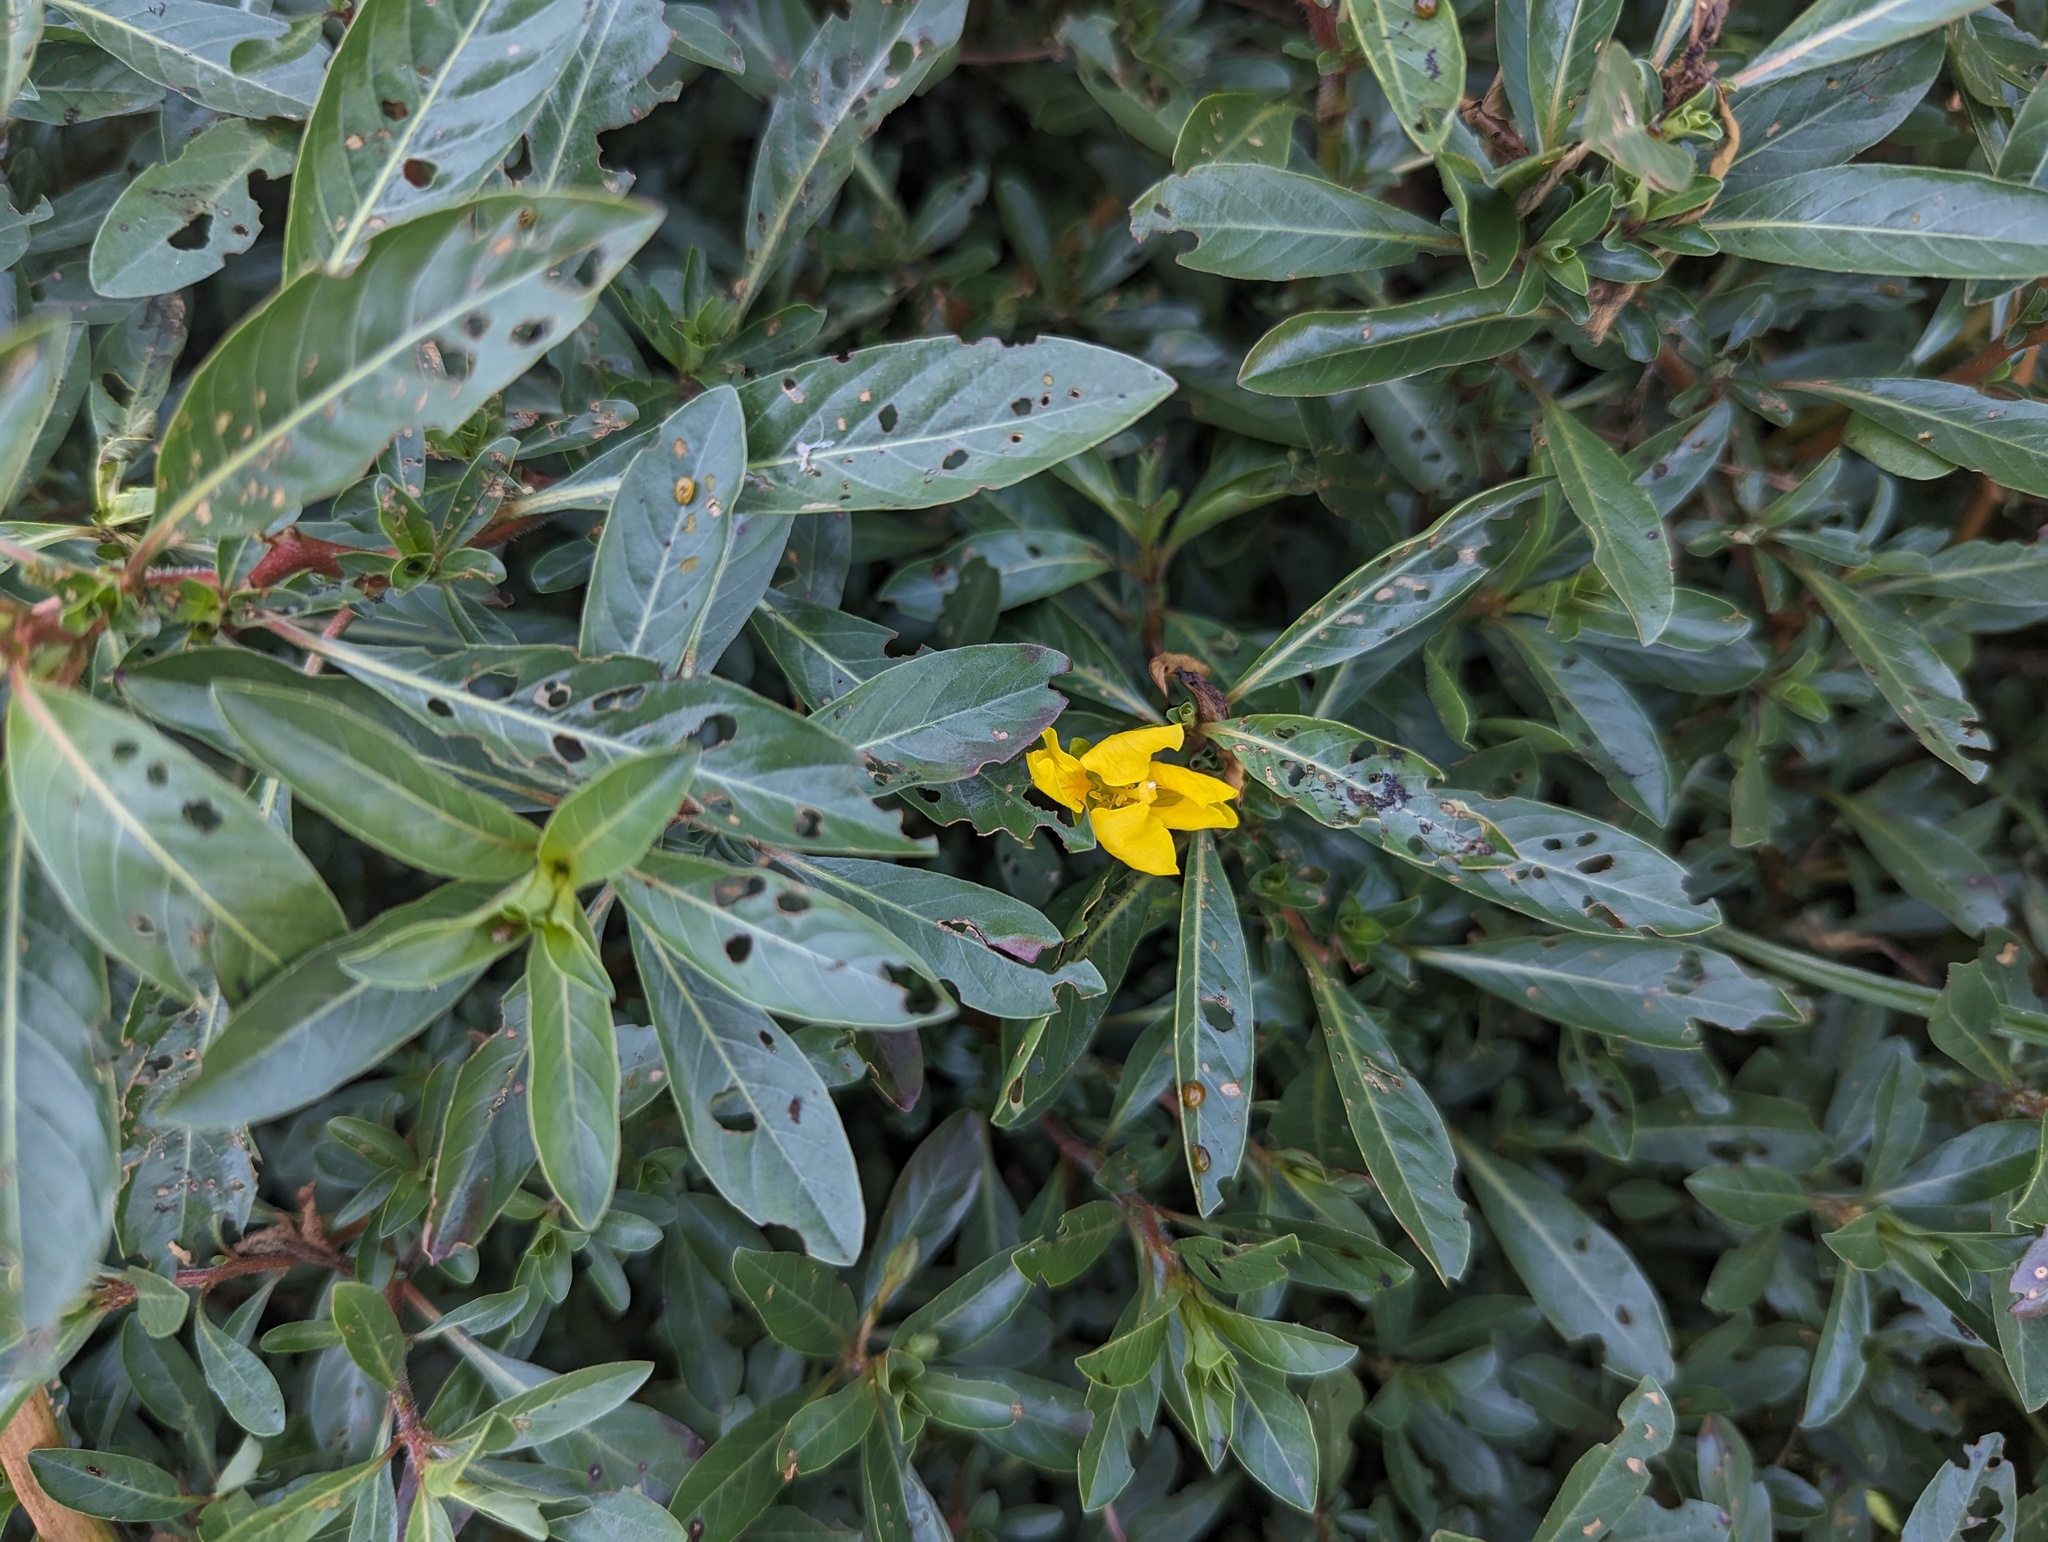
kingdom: Plantae
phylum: Tracheophyta
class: Magnoliopsida
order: Myrtales
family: Onagraceae
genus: Ludwigia
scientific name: Ludwigia peploides
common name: Floating primrose-willow
